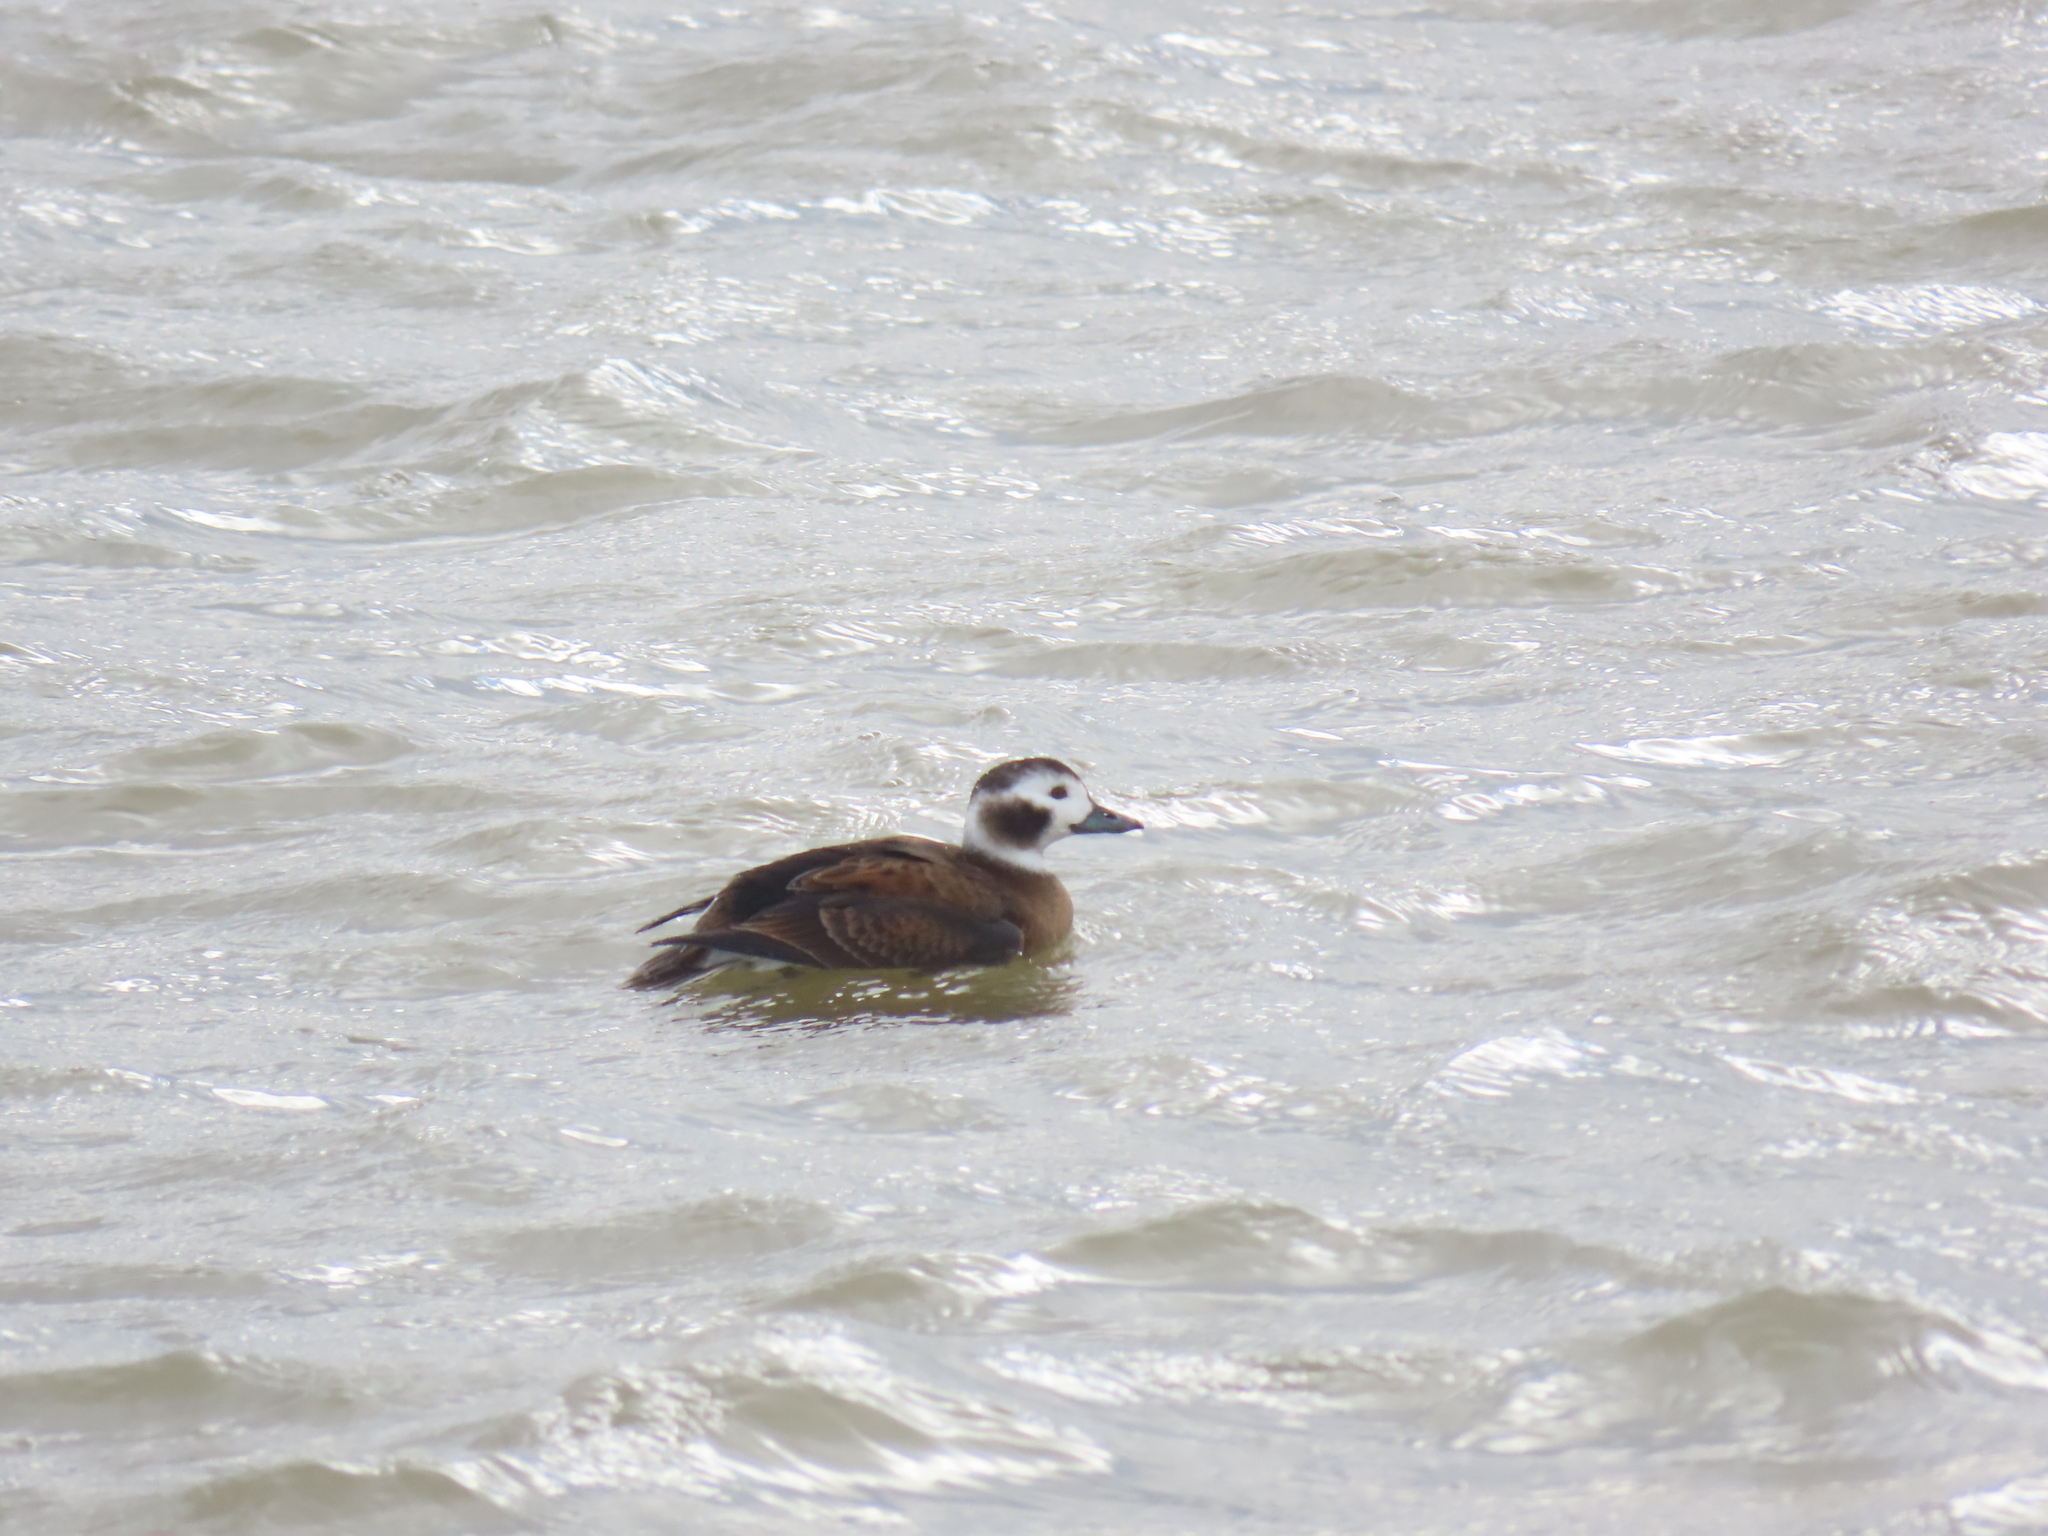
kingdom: Animalia
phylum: Chordata
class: Aves
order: Anseriformes
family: Anatidae
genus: Clangula
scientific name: Clangula hyemalis
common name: Long-tailed duck
